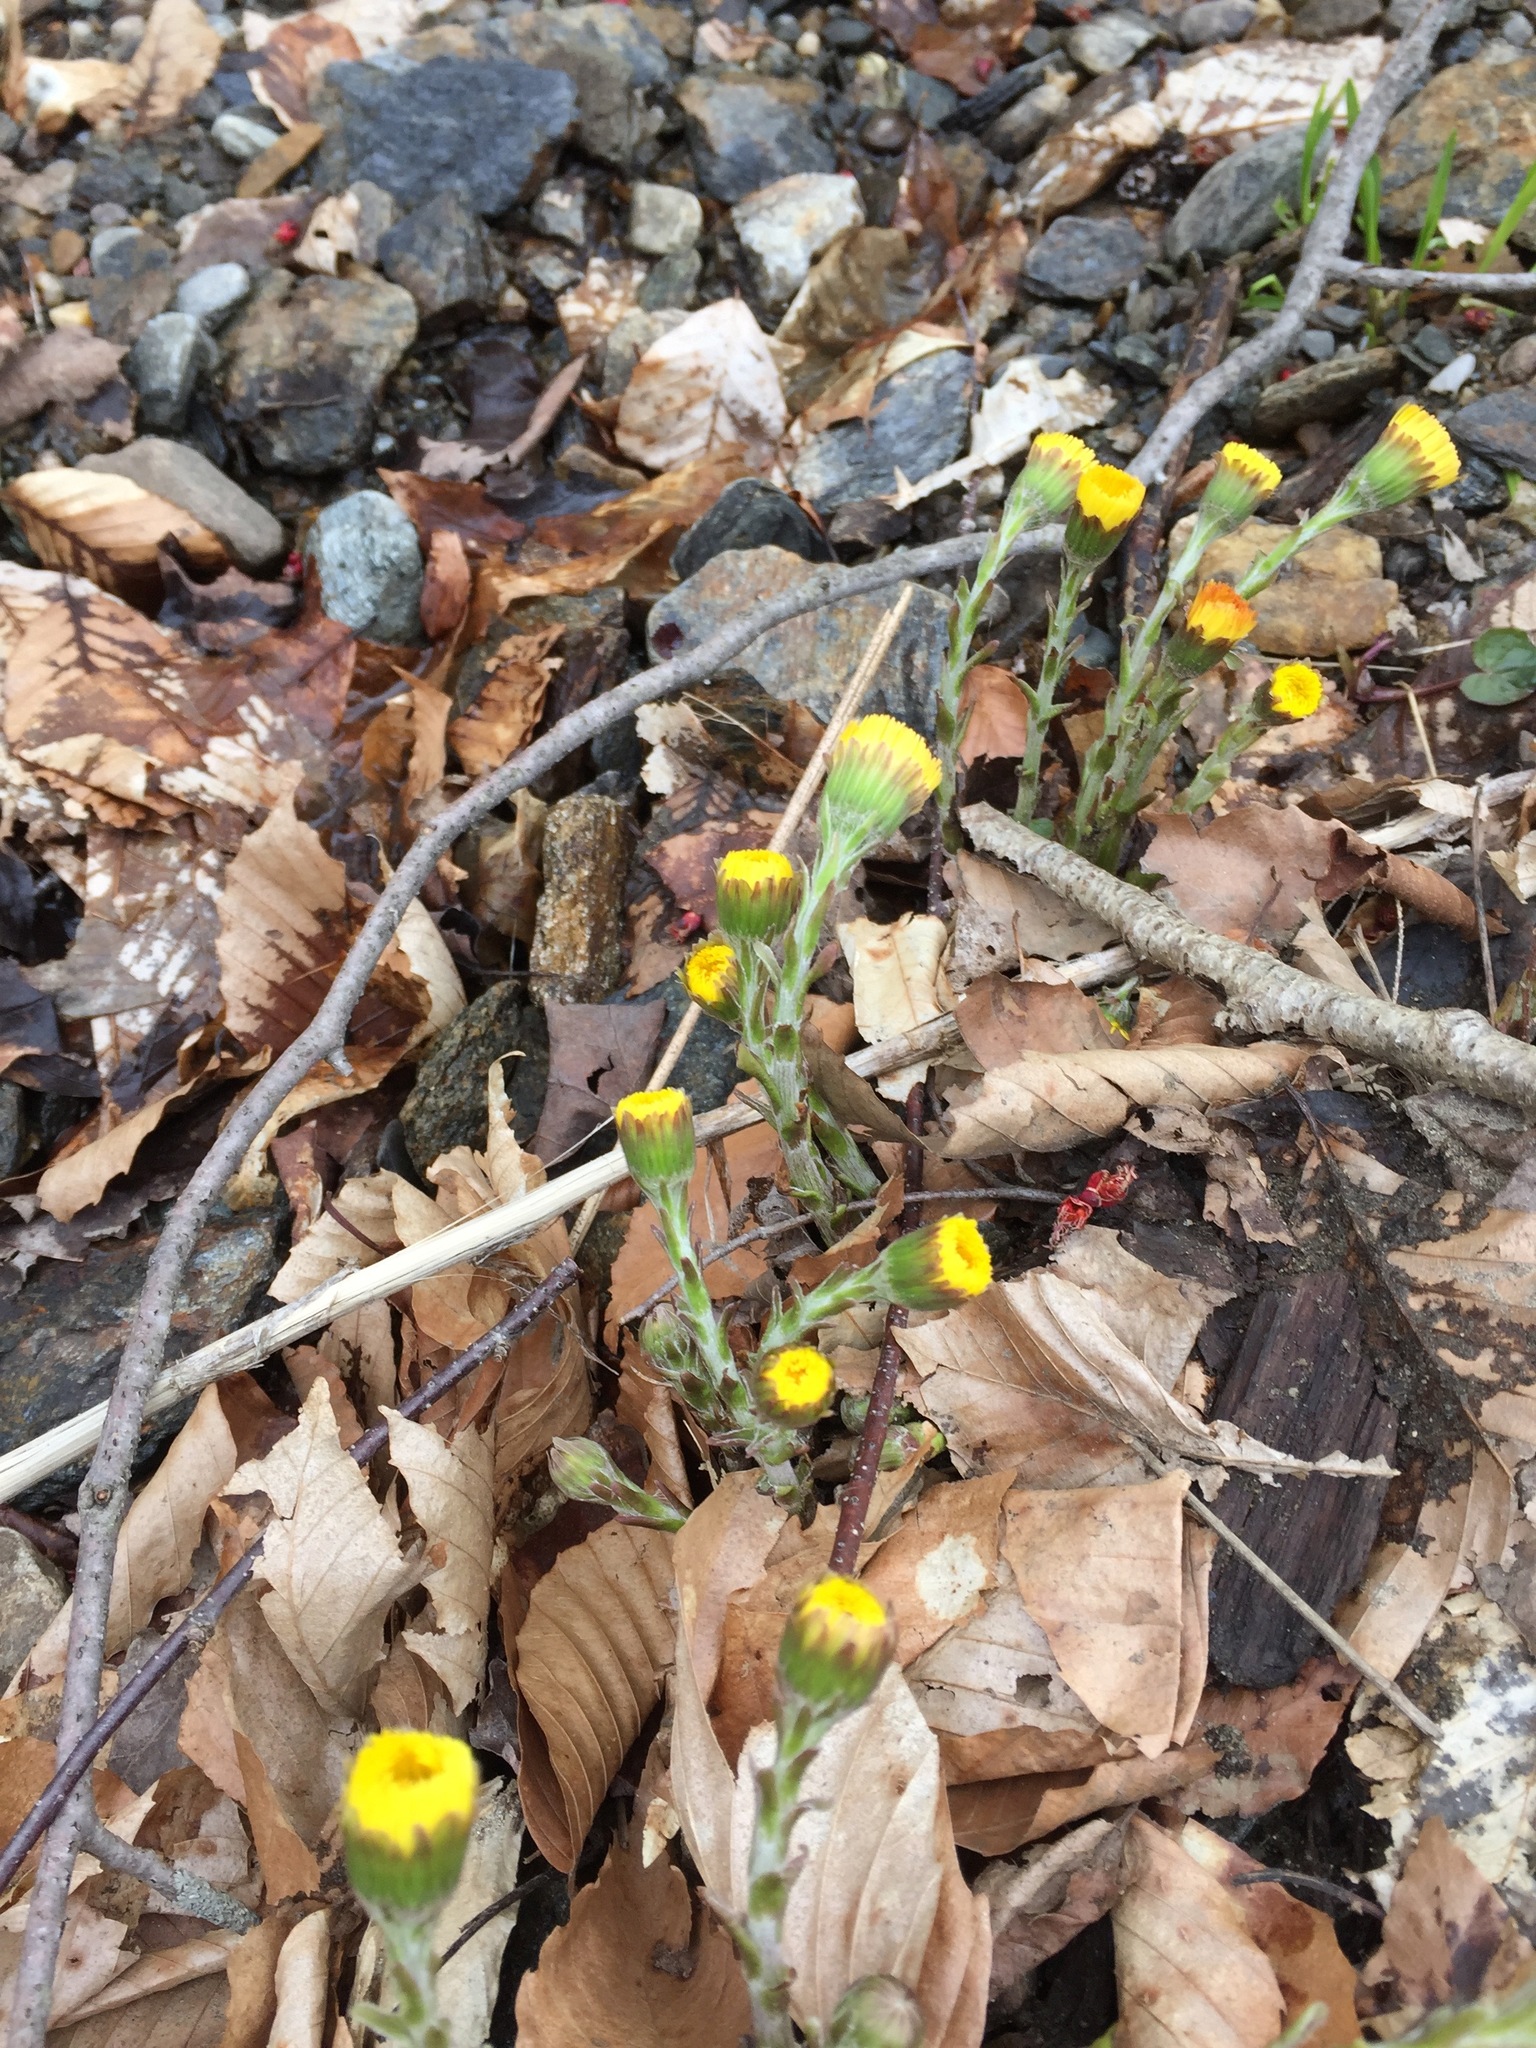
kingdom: Plantae
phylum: Tracheophyta
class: Magnoliopsida
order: Asterales
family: Asteraceae
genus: Tussilago
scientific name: Tussilago farfara
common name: Coltsfoot
